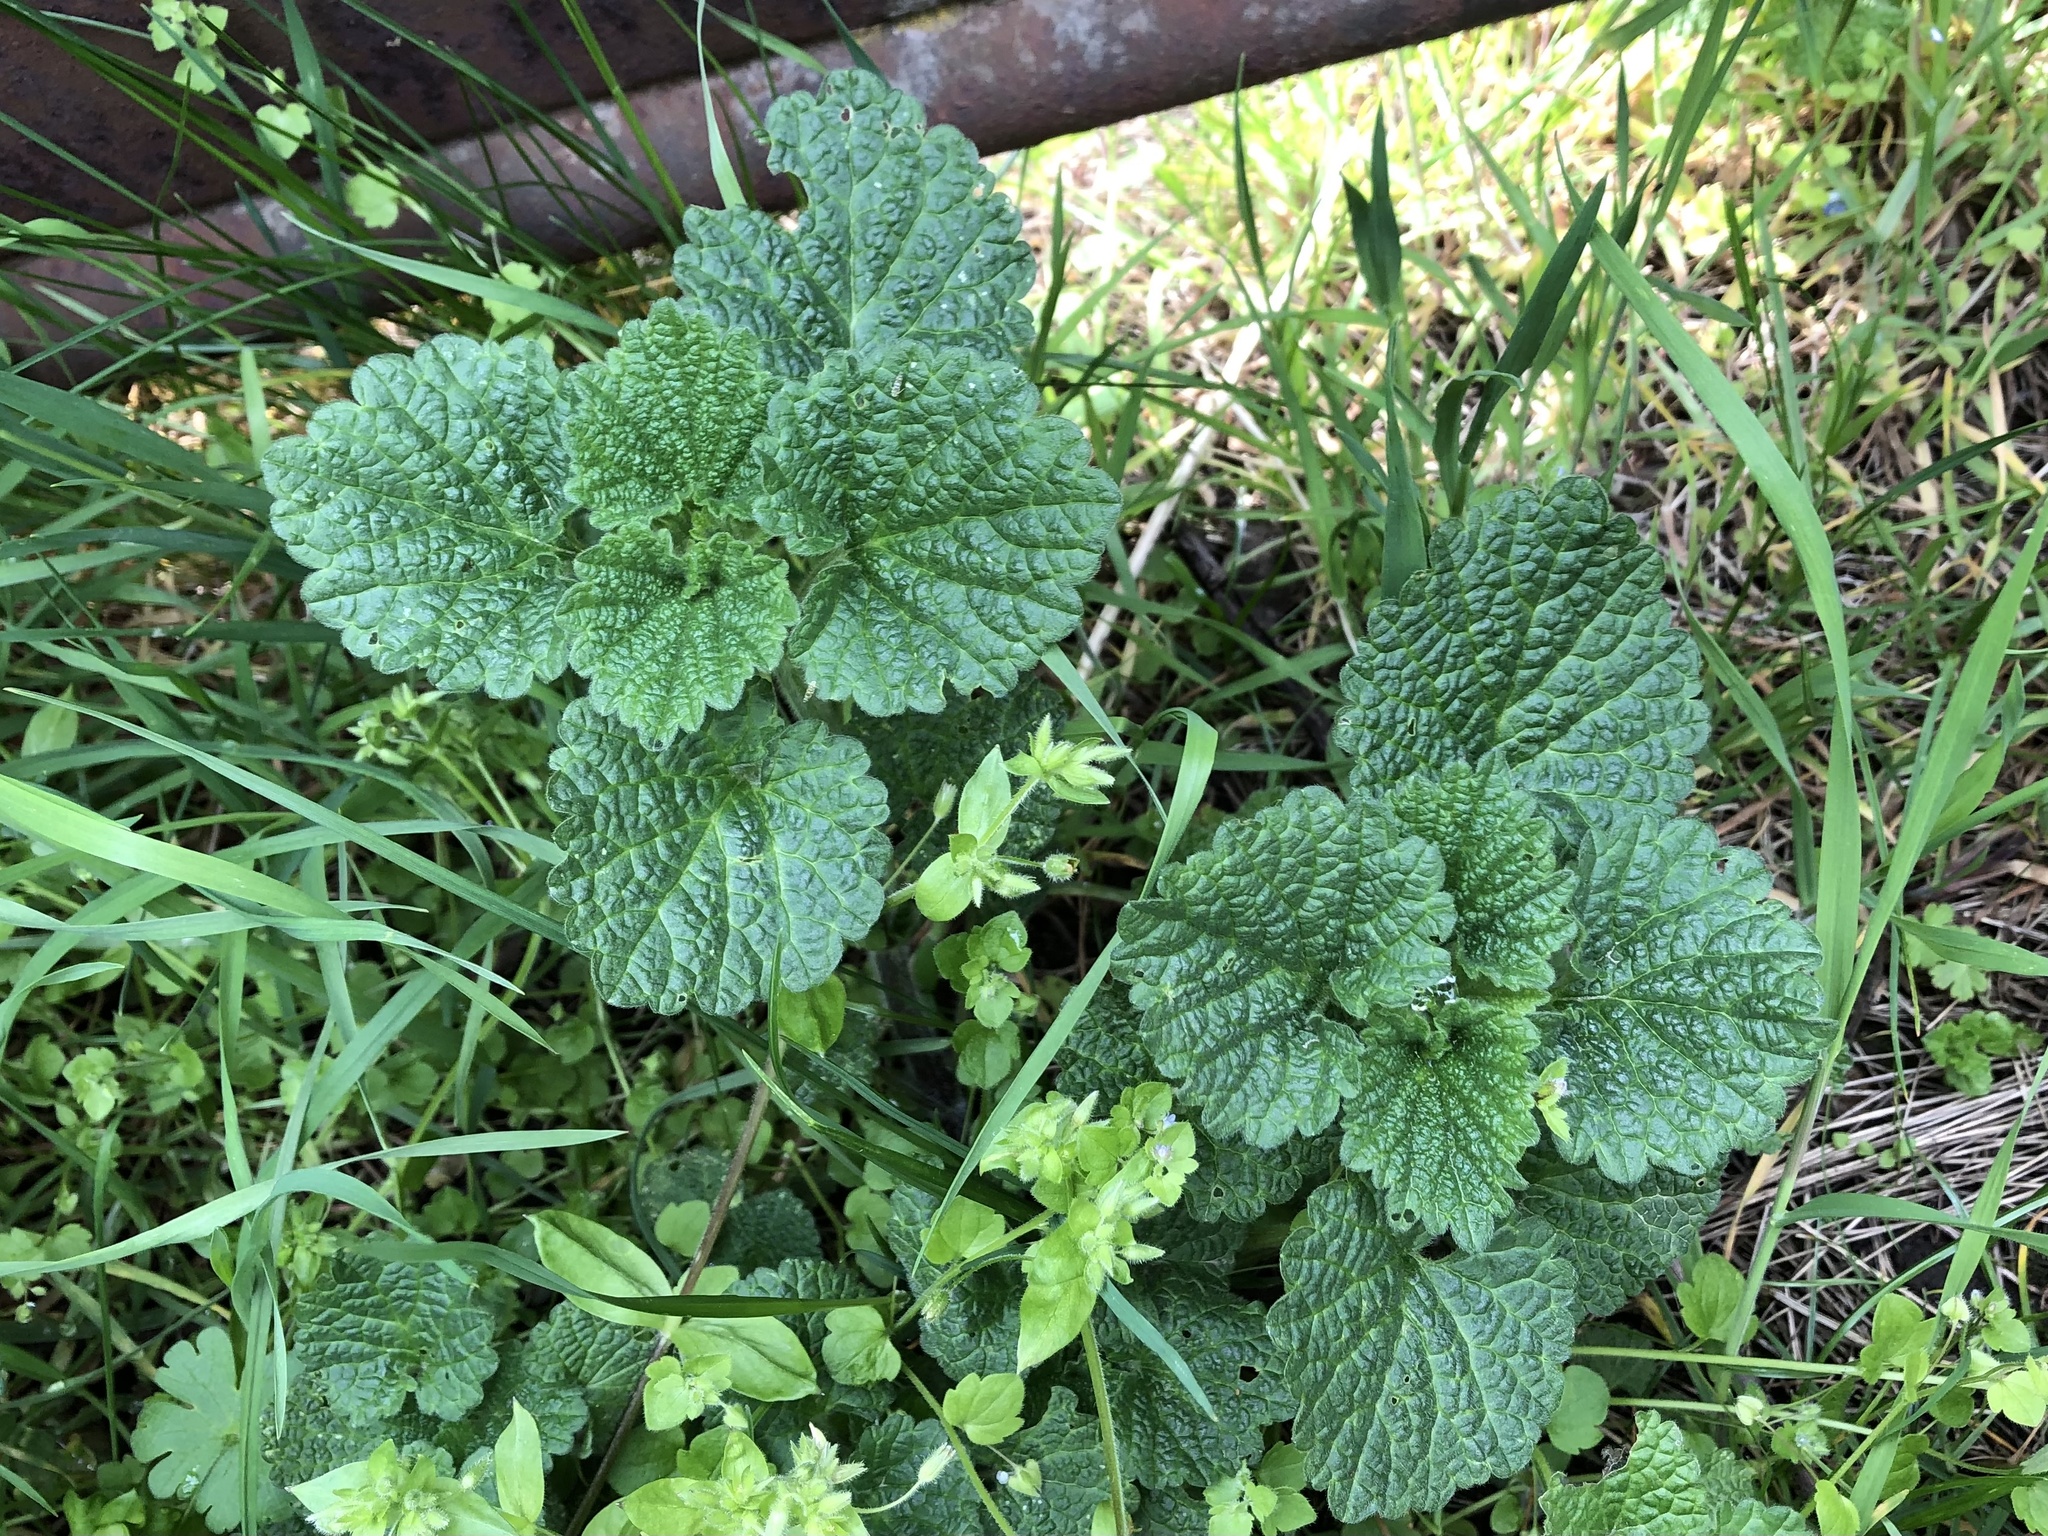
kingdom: Plantae
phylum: Tracheophyta
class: Magnoliopsida
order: Lamiales
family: Lamiaceae
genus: Ballota
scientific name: Ballota nigra
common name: Black horehound
